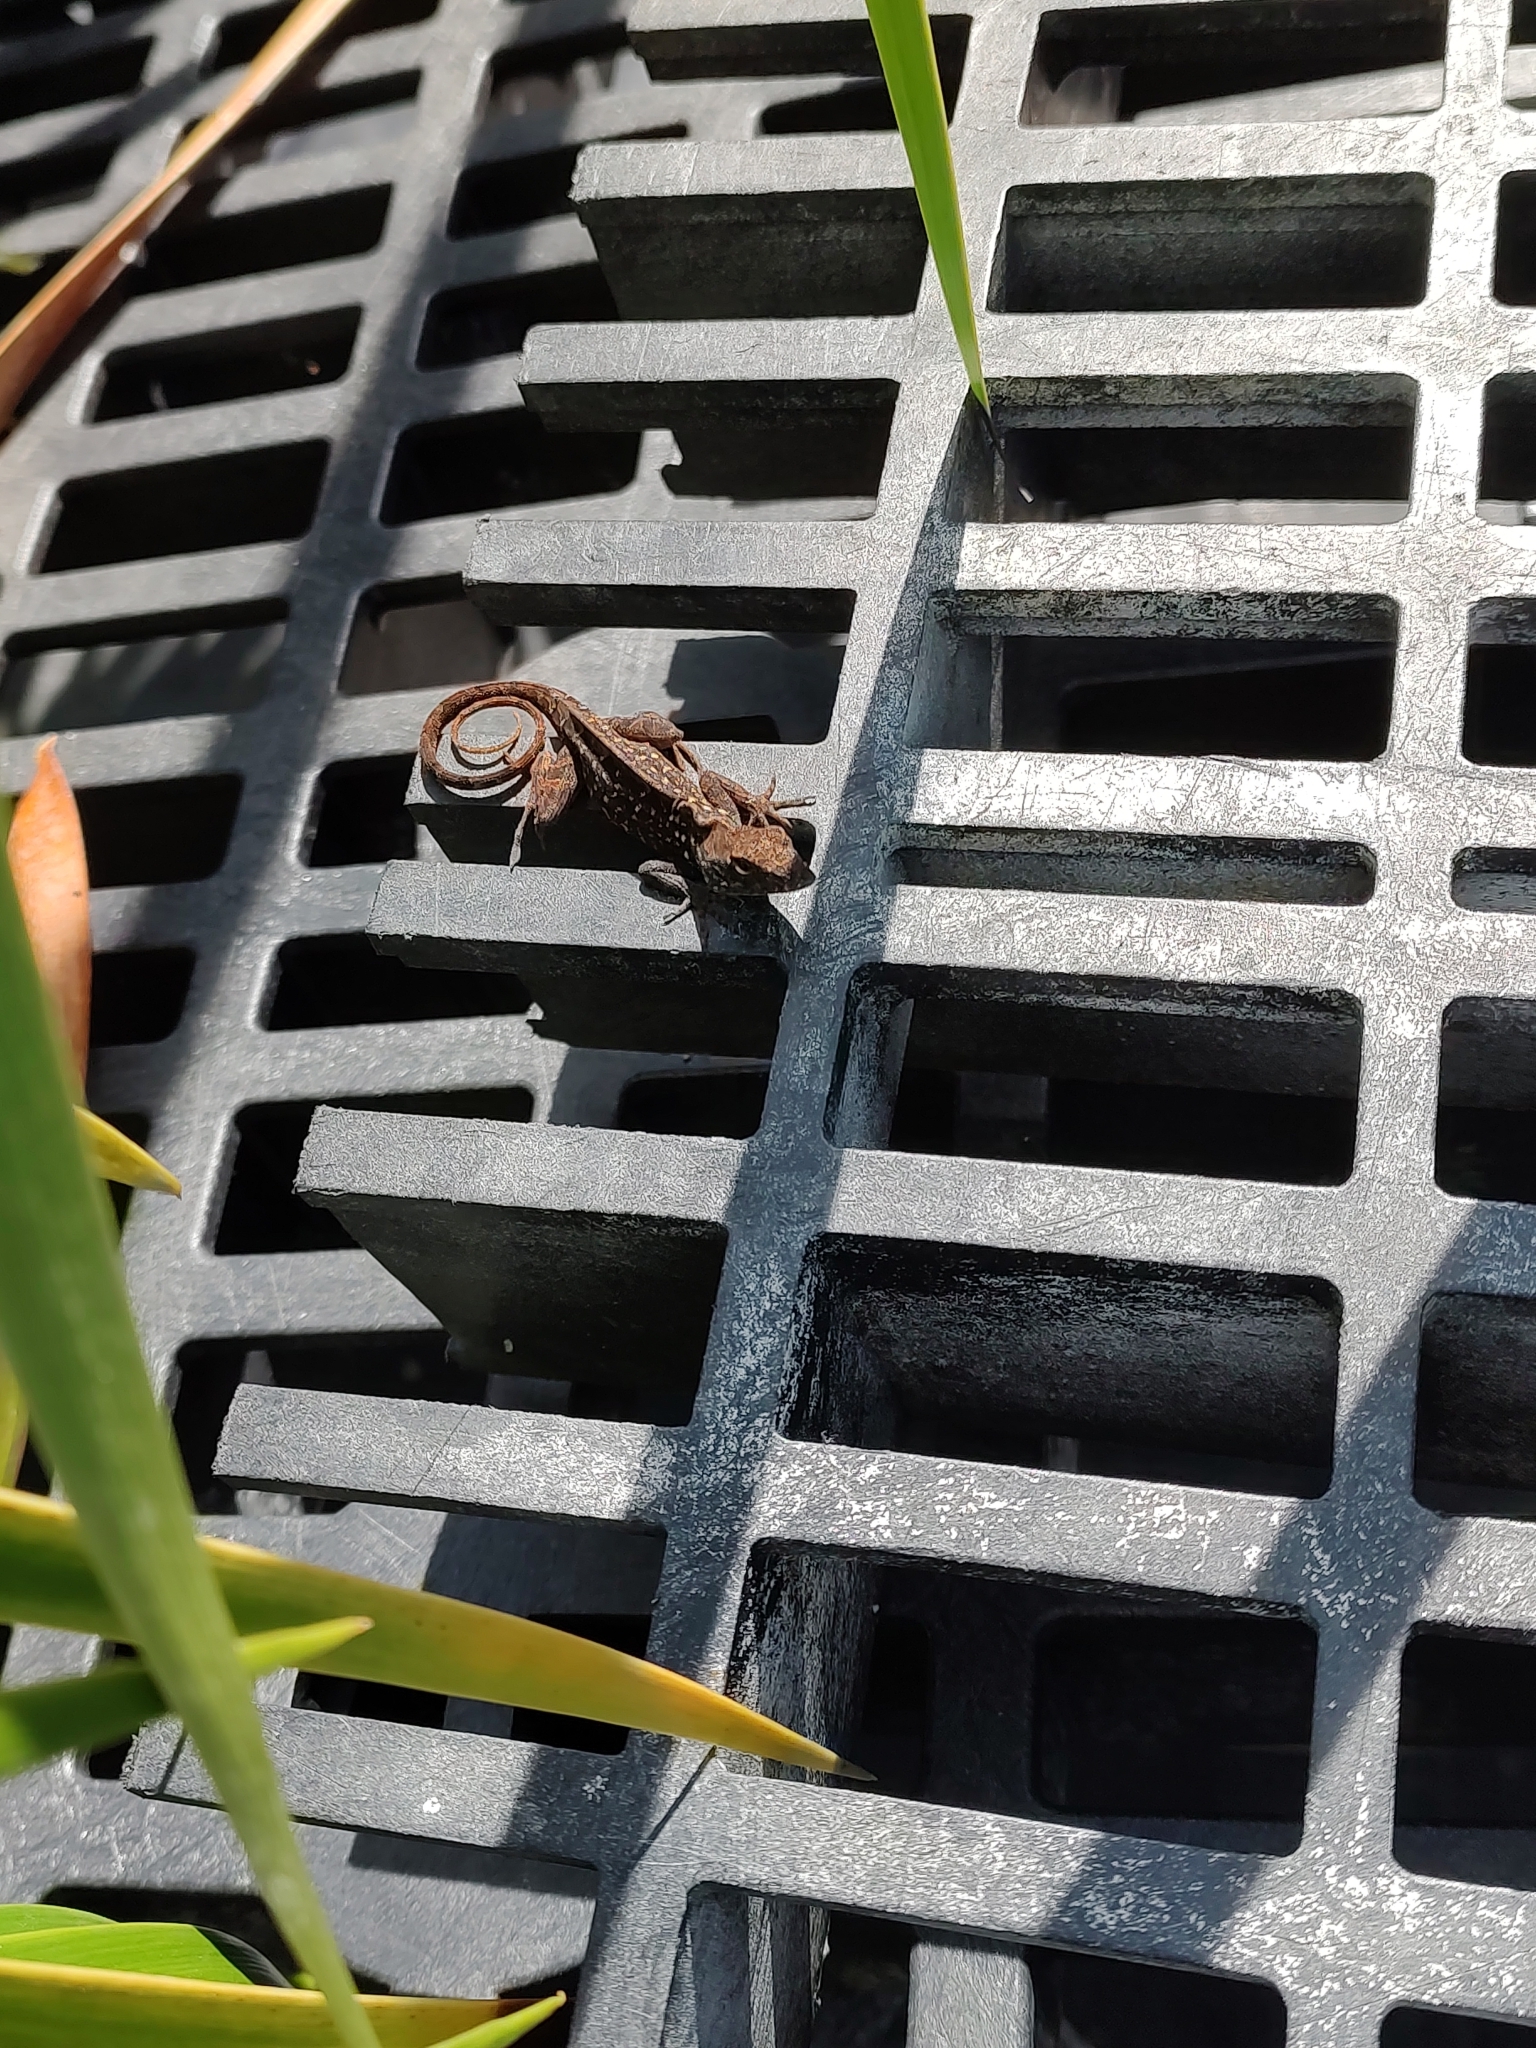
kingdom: Animalia
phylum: Chordata
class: Squamata
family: Dactyloidae
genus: Anolis
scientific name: Anolis sagrei
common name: Brown anole
